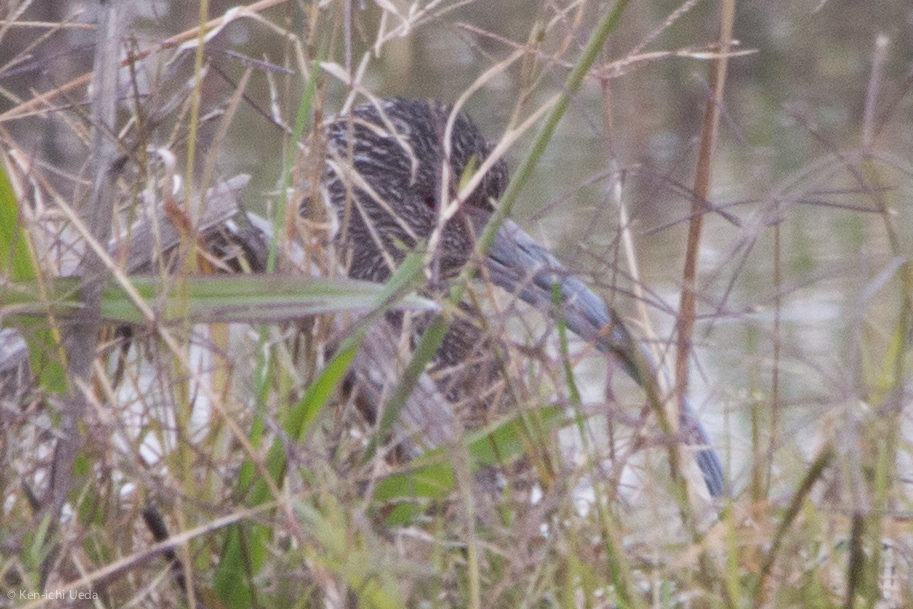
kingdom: Animalia
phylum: Chordata
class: Aves
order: Pelecaniformes
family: Threskiornithidae
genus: Plegadis
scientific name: Plegadis chihi
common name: White-faced ibis
